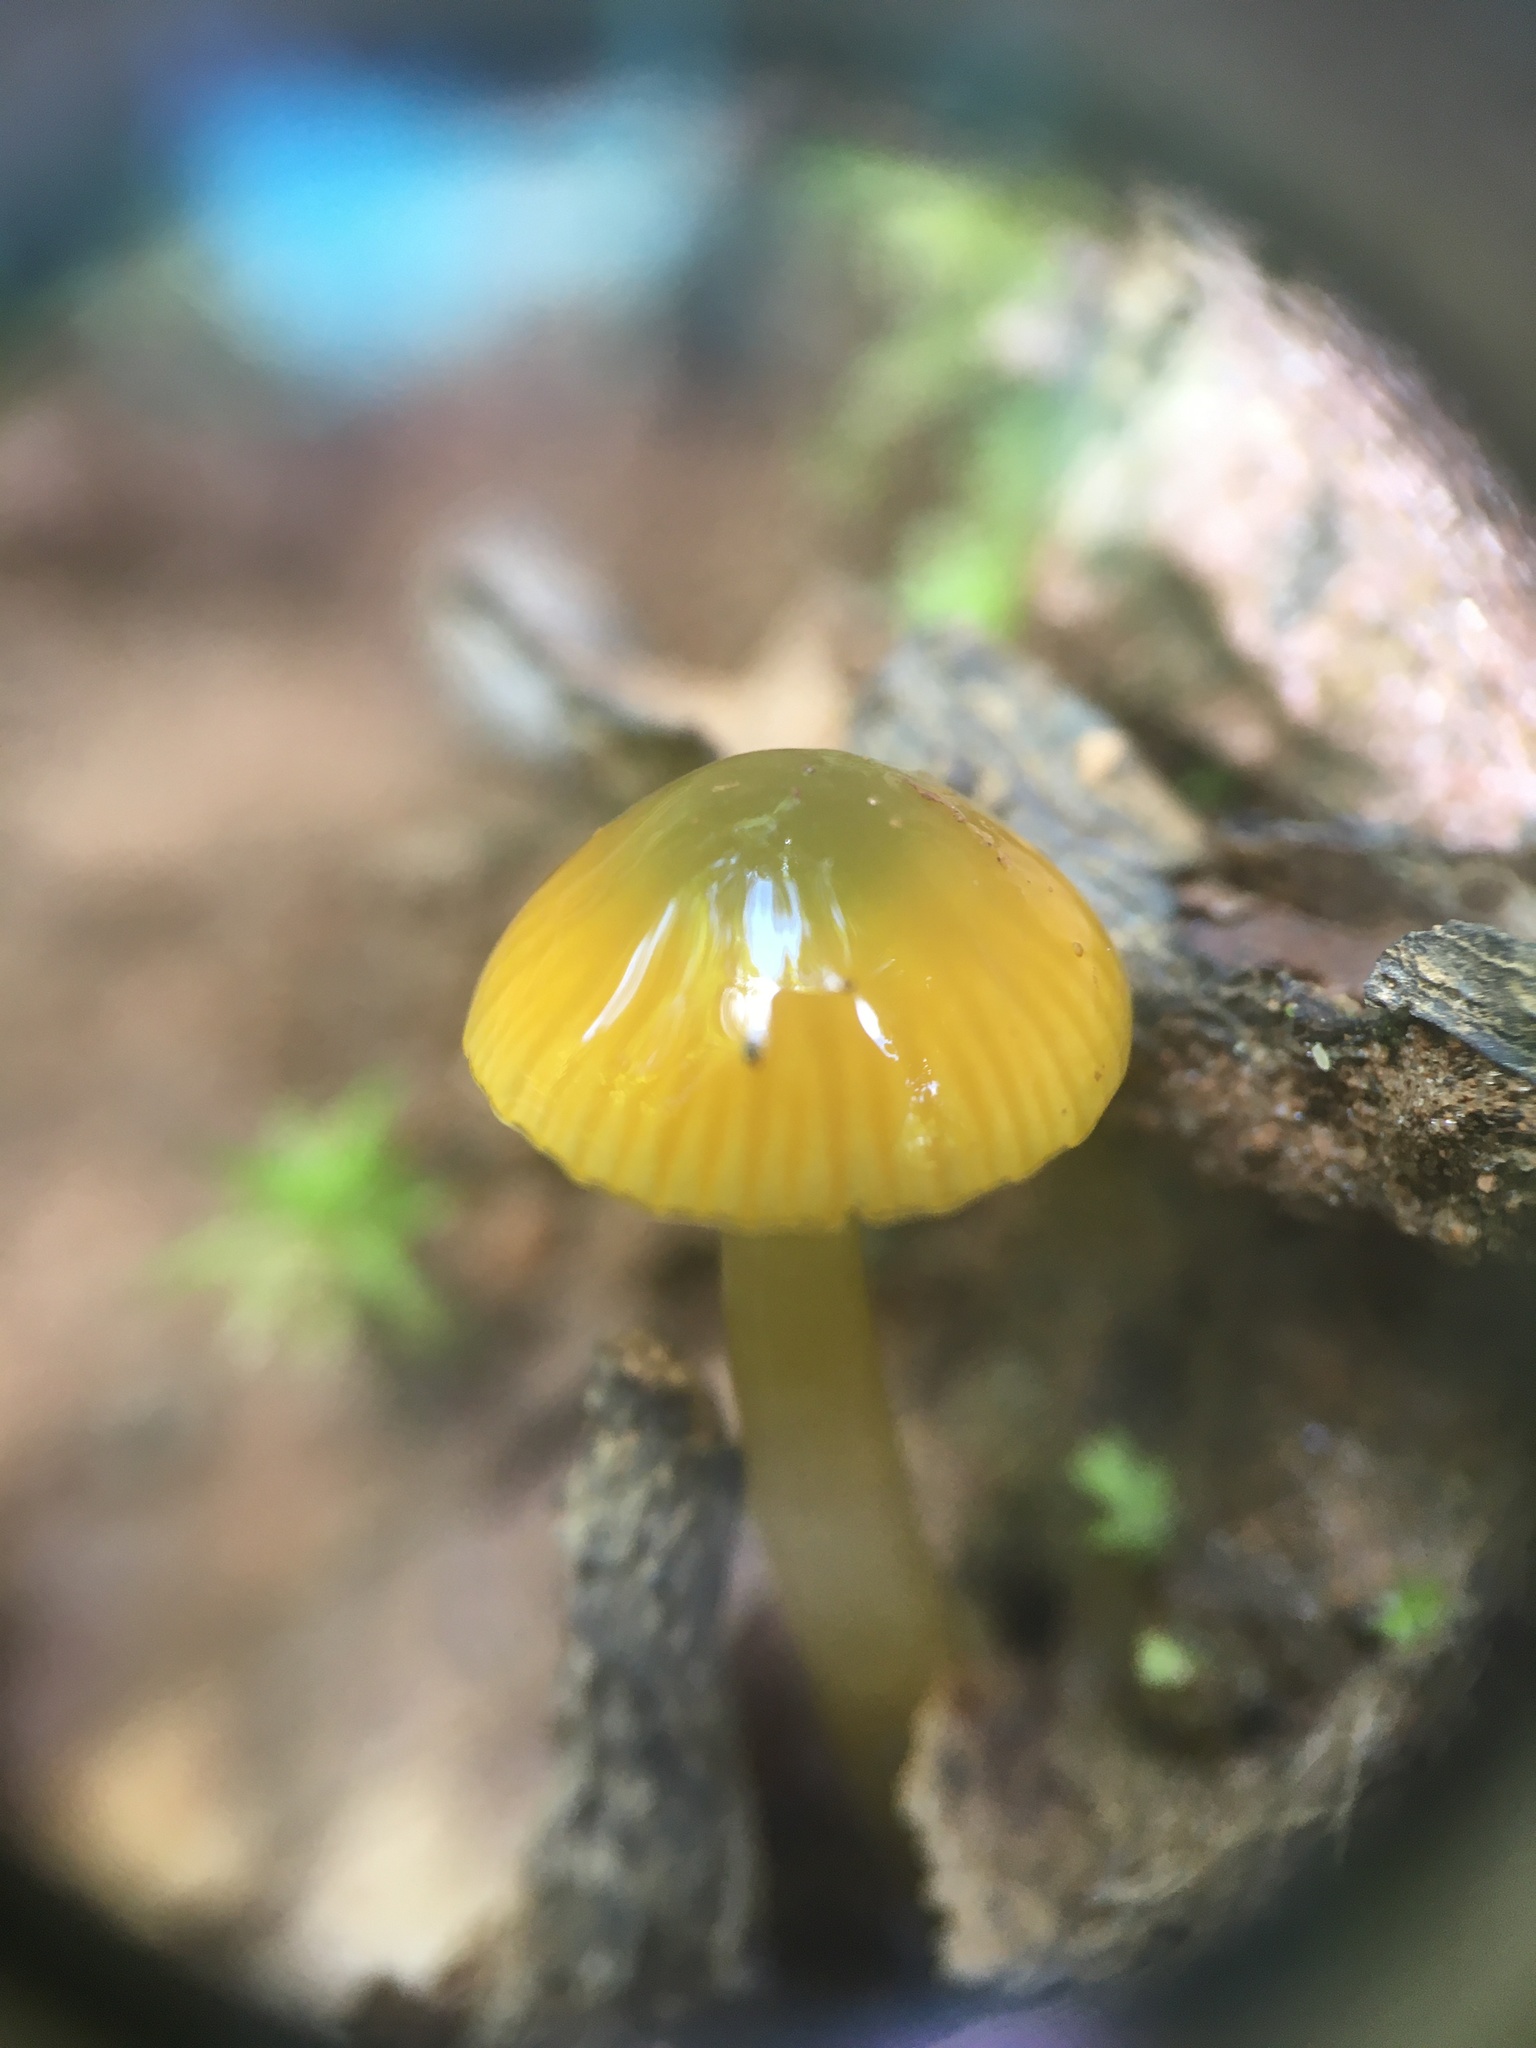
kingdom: Fungi
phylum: Basidiomycota
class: Agaricomycetes
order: Agaricales
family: Hygrophoraceae
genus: Gliophorus
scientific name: Gliophorus psittacinus
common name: Parrot wax-cap
